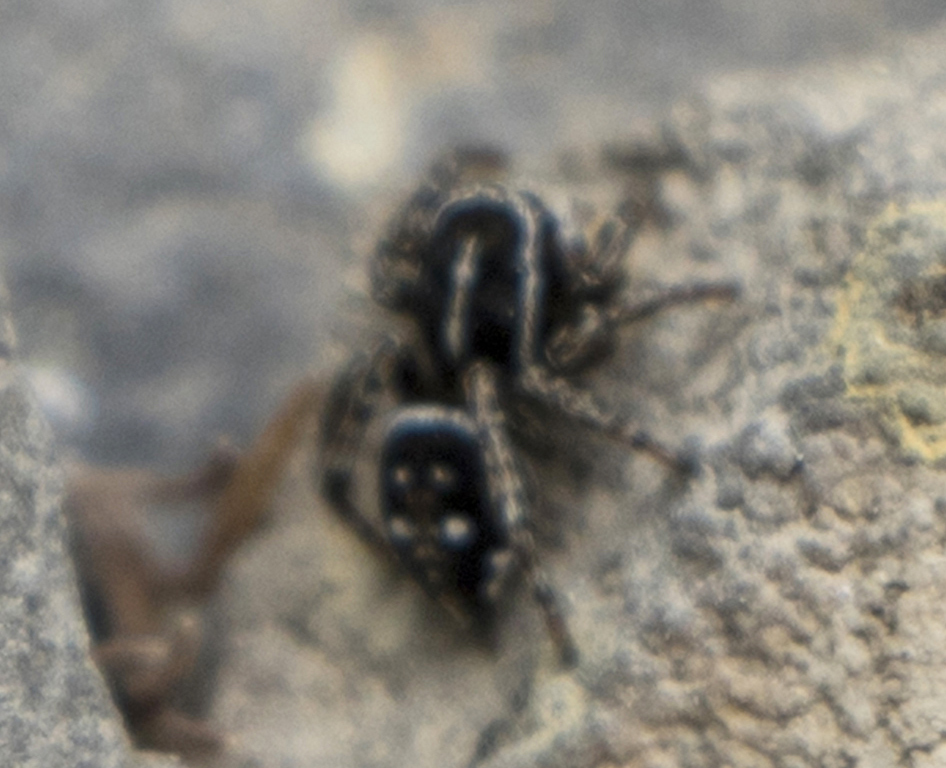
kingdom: Animalia
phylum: Arthropoda
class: Arachnida
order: Araneae
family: Salticidae
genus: Attulus
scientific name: Attulus dzieduszyckii
